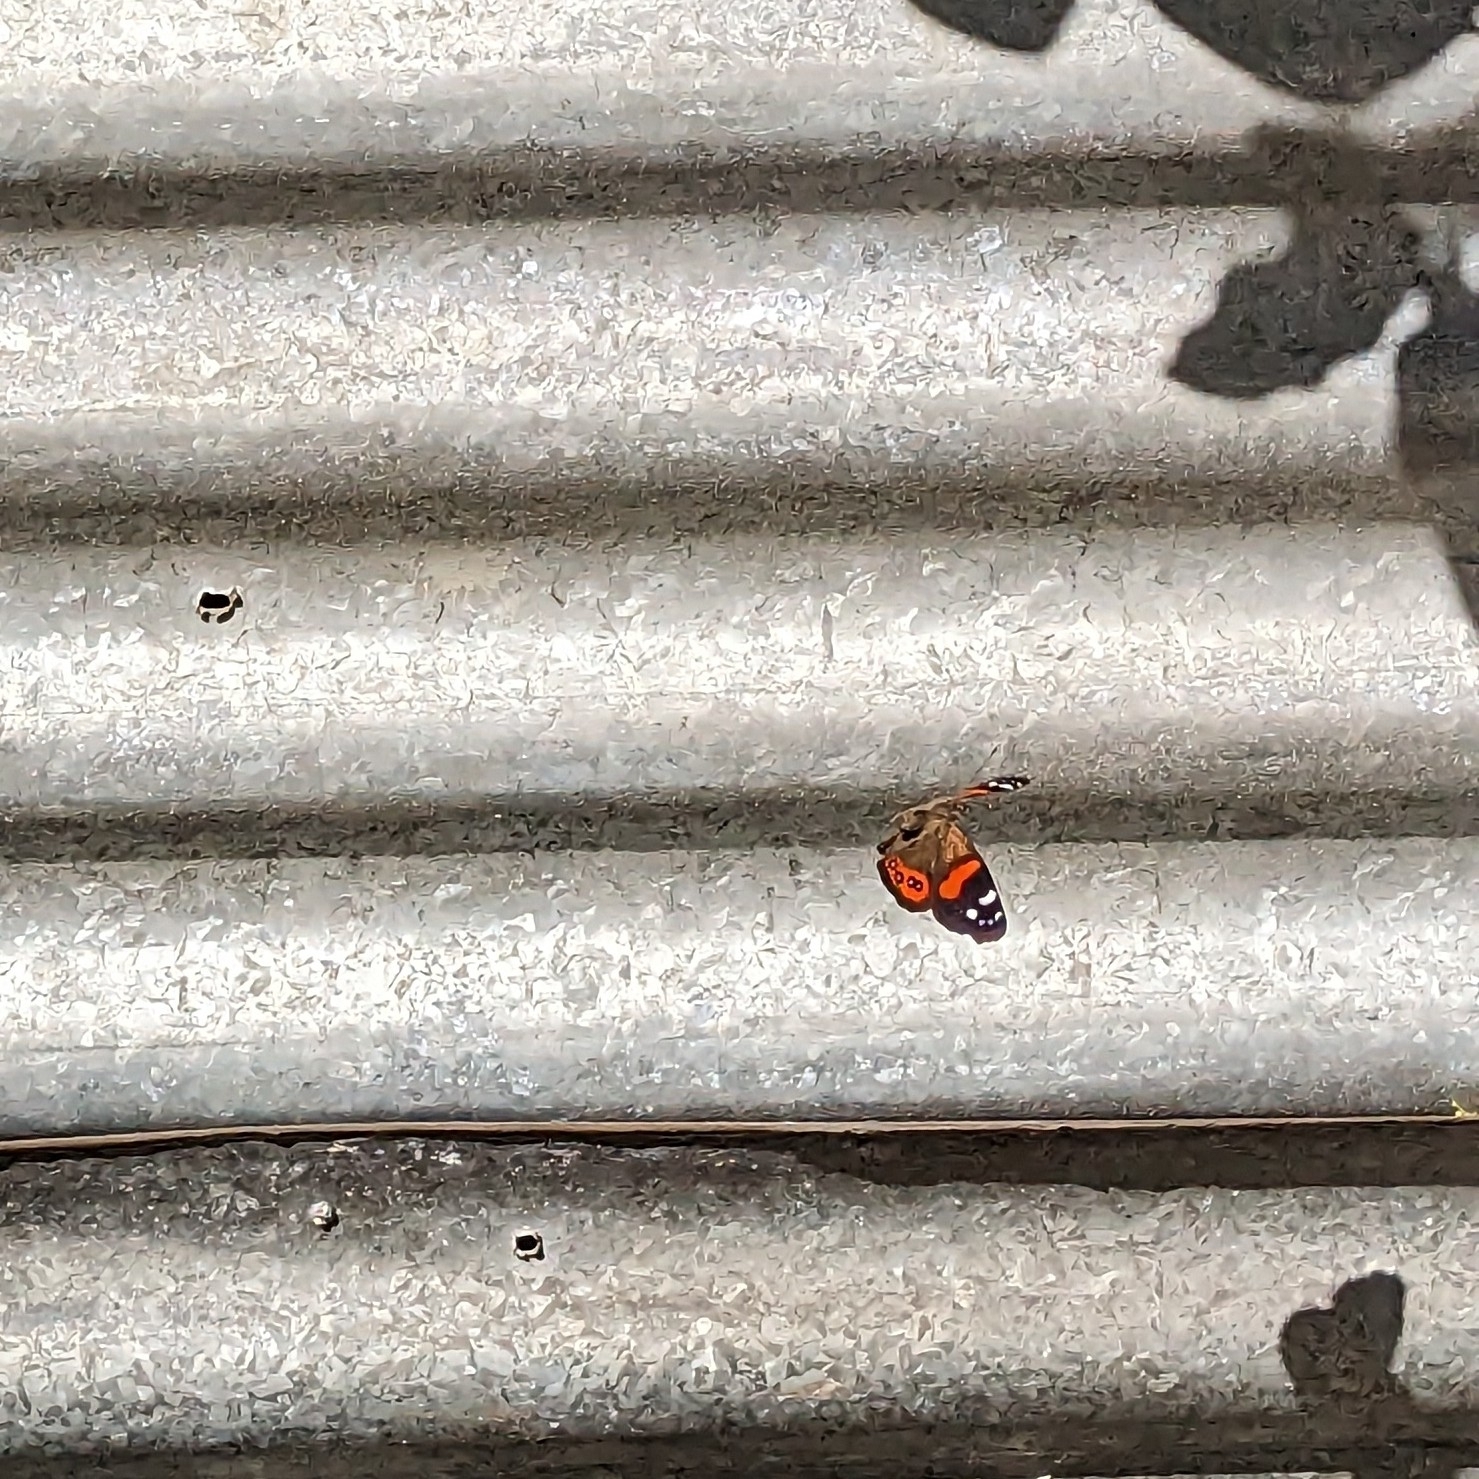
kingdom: Animalia
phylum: Arthropoda
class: Insecta
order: Lepidoptera
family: Nymphalidae
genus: Vanessa
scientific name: Vanessa gonerilla
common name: New zealand red admiral
